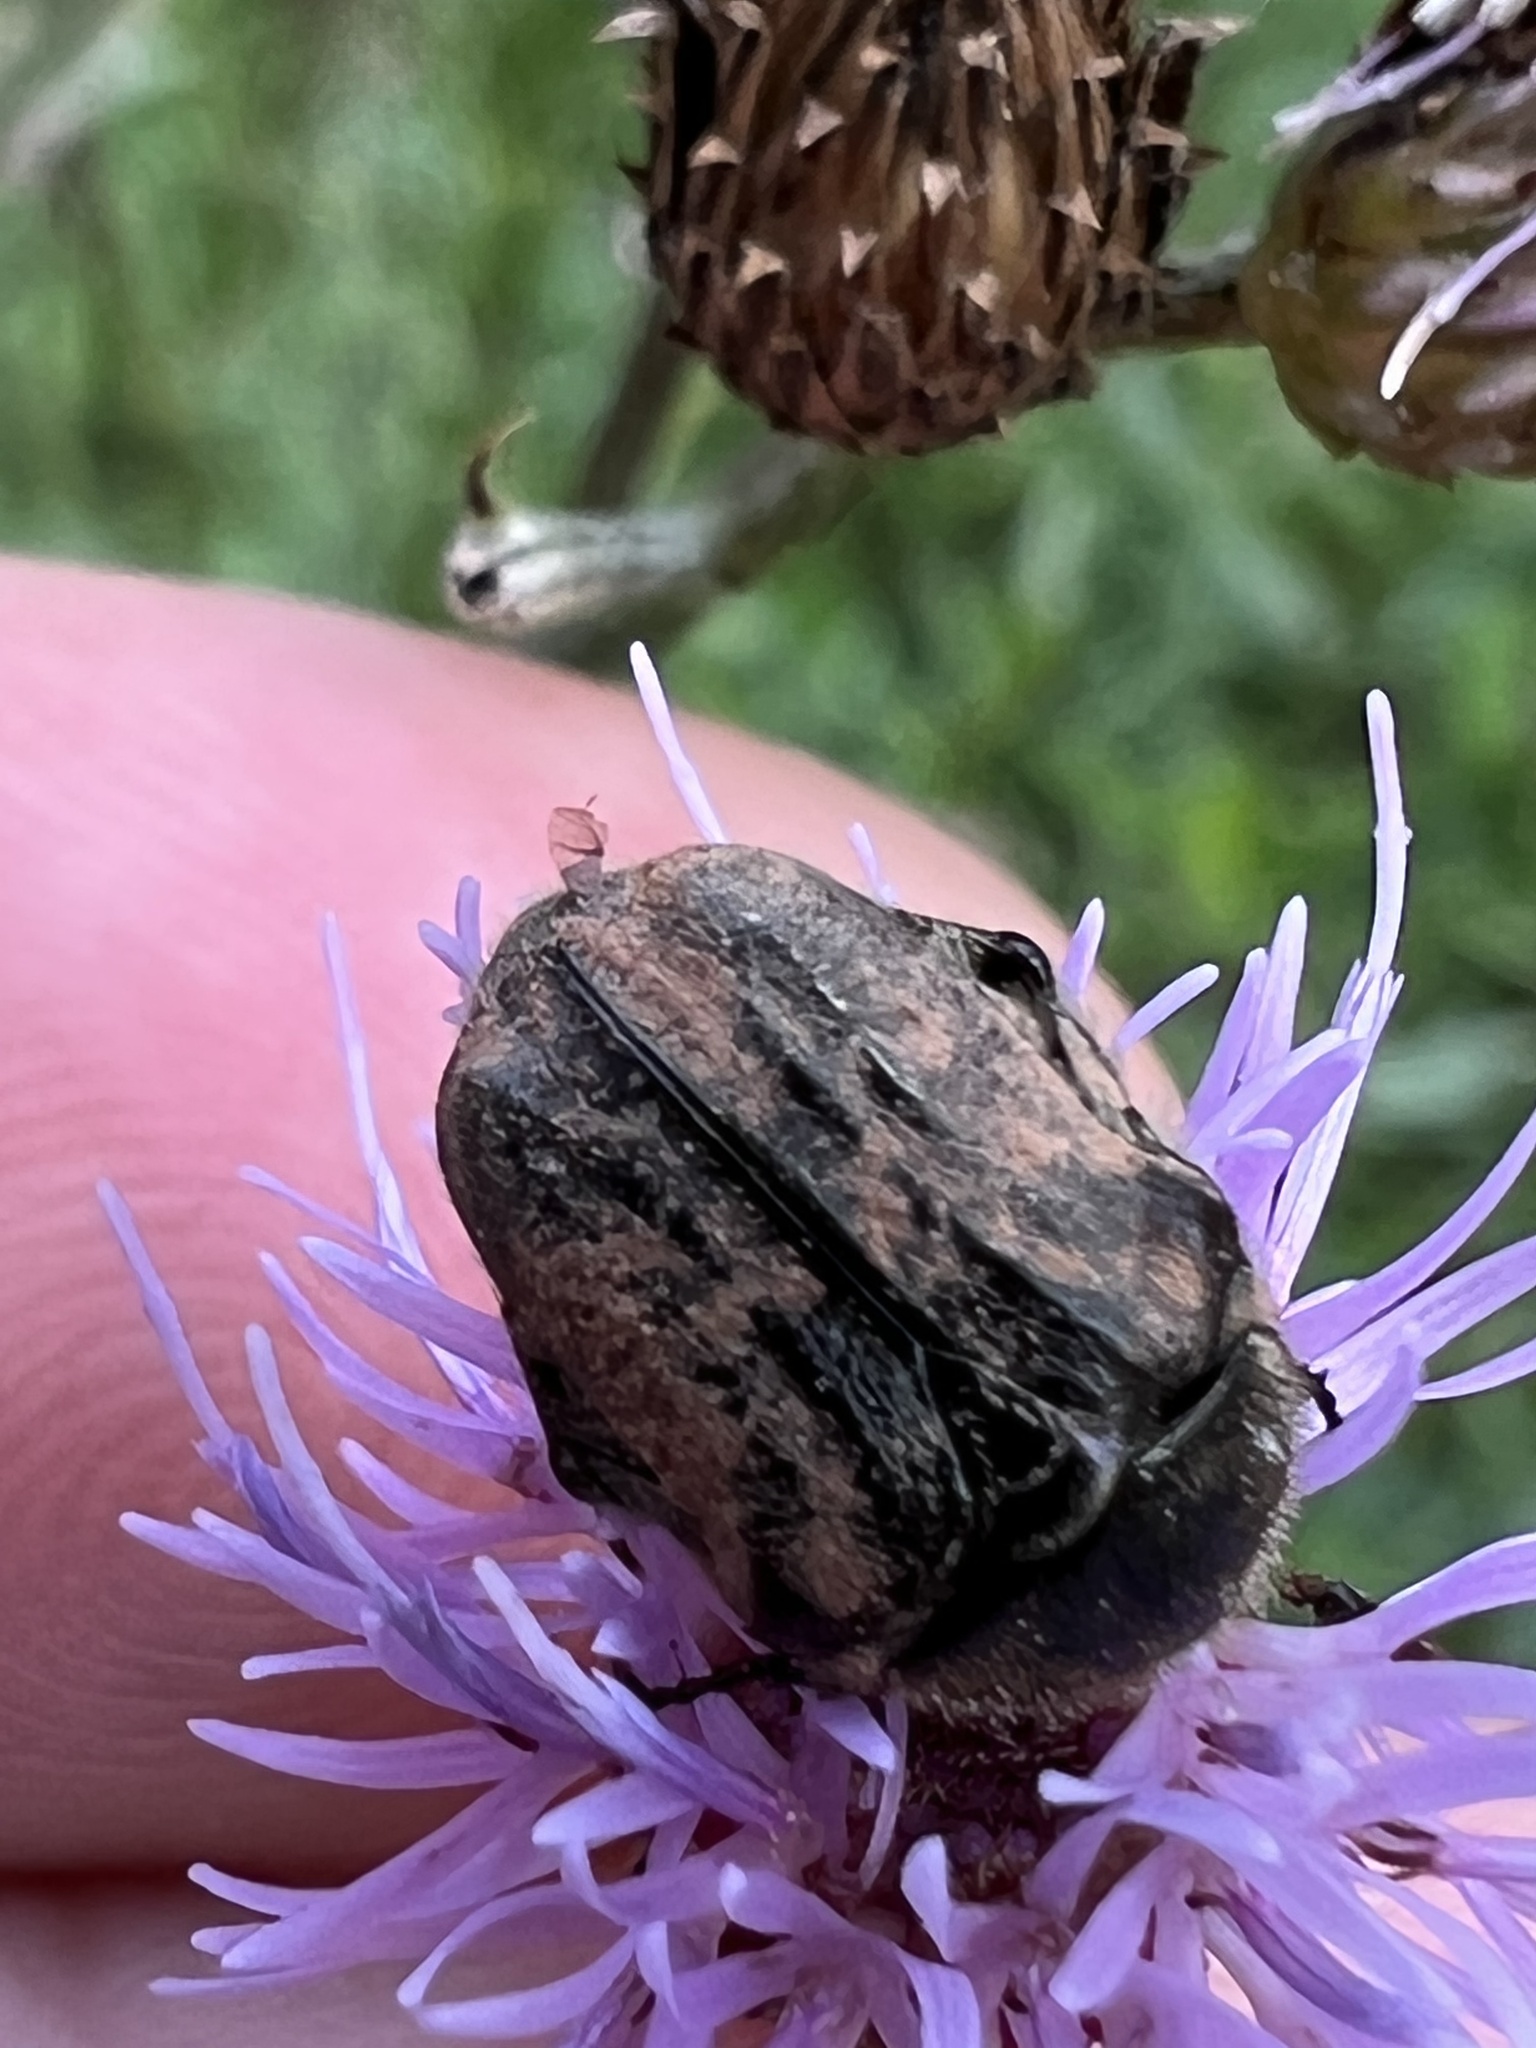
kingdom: Animalia
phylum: Arthropoda
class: Insecta
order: Coleoptera
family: Scarabaeidae
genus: Euphoria
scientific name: Euphoria sepulcralis
